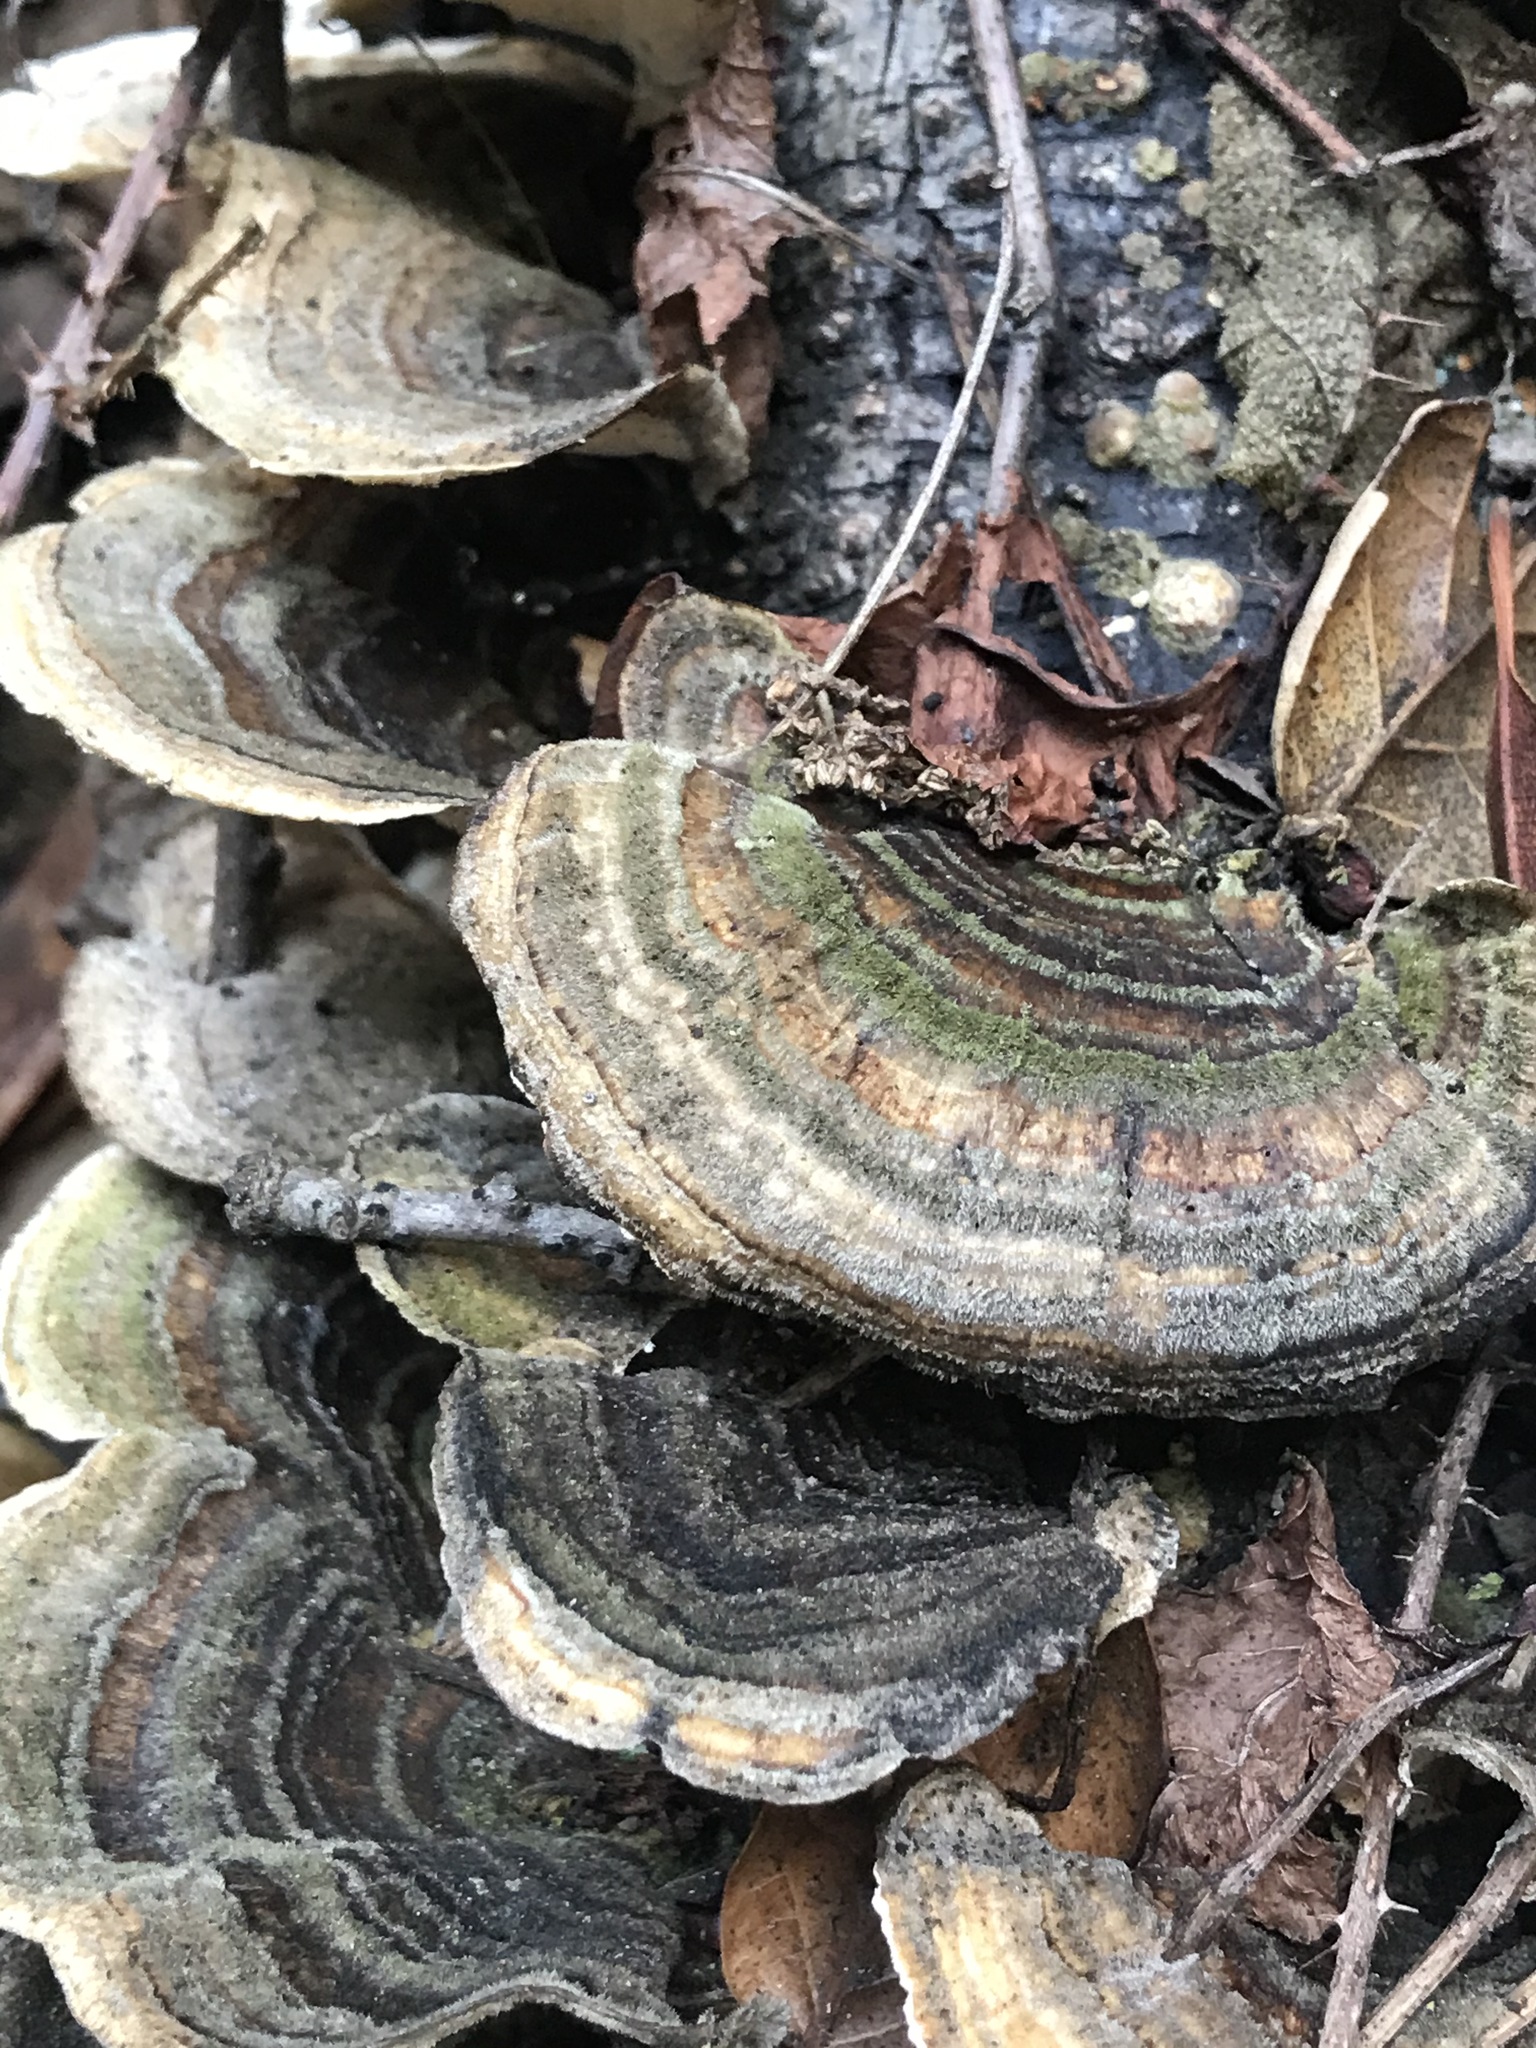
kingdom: Fungi
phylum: Basidiomycota
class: Agaricomycetes
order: Polyporales
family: Polyporaceae
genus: Trametes
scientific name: Trametes versicolor
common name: Turkeytail
